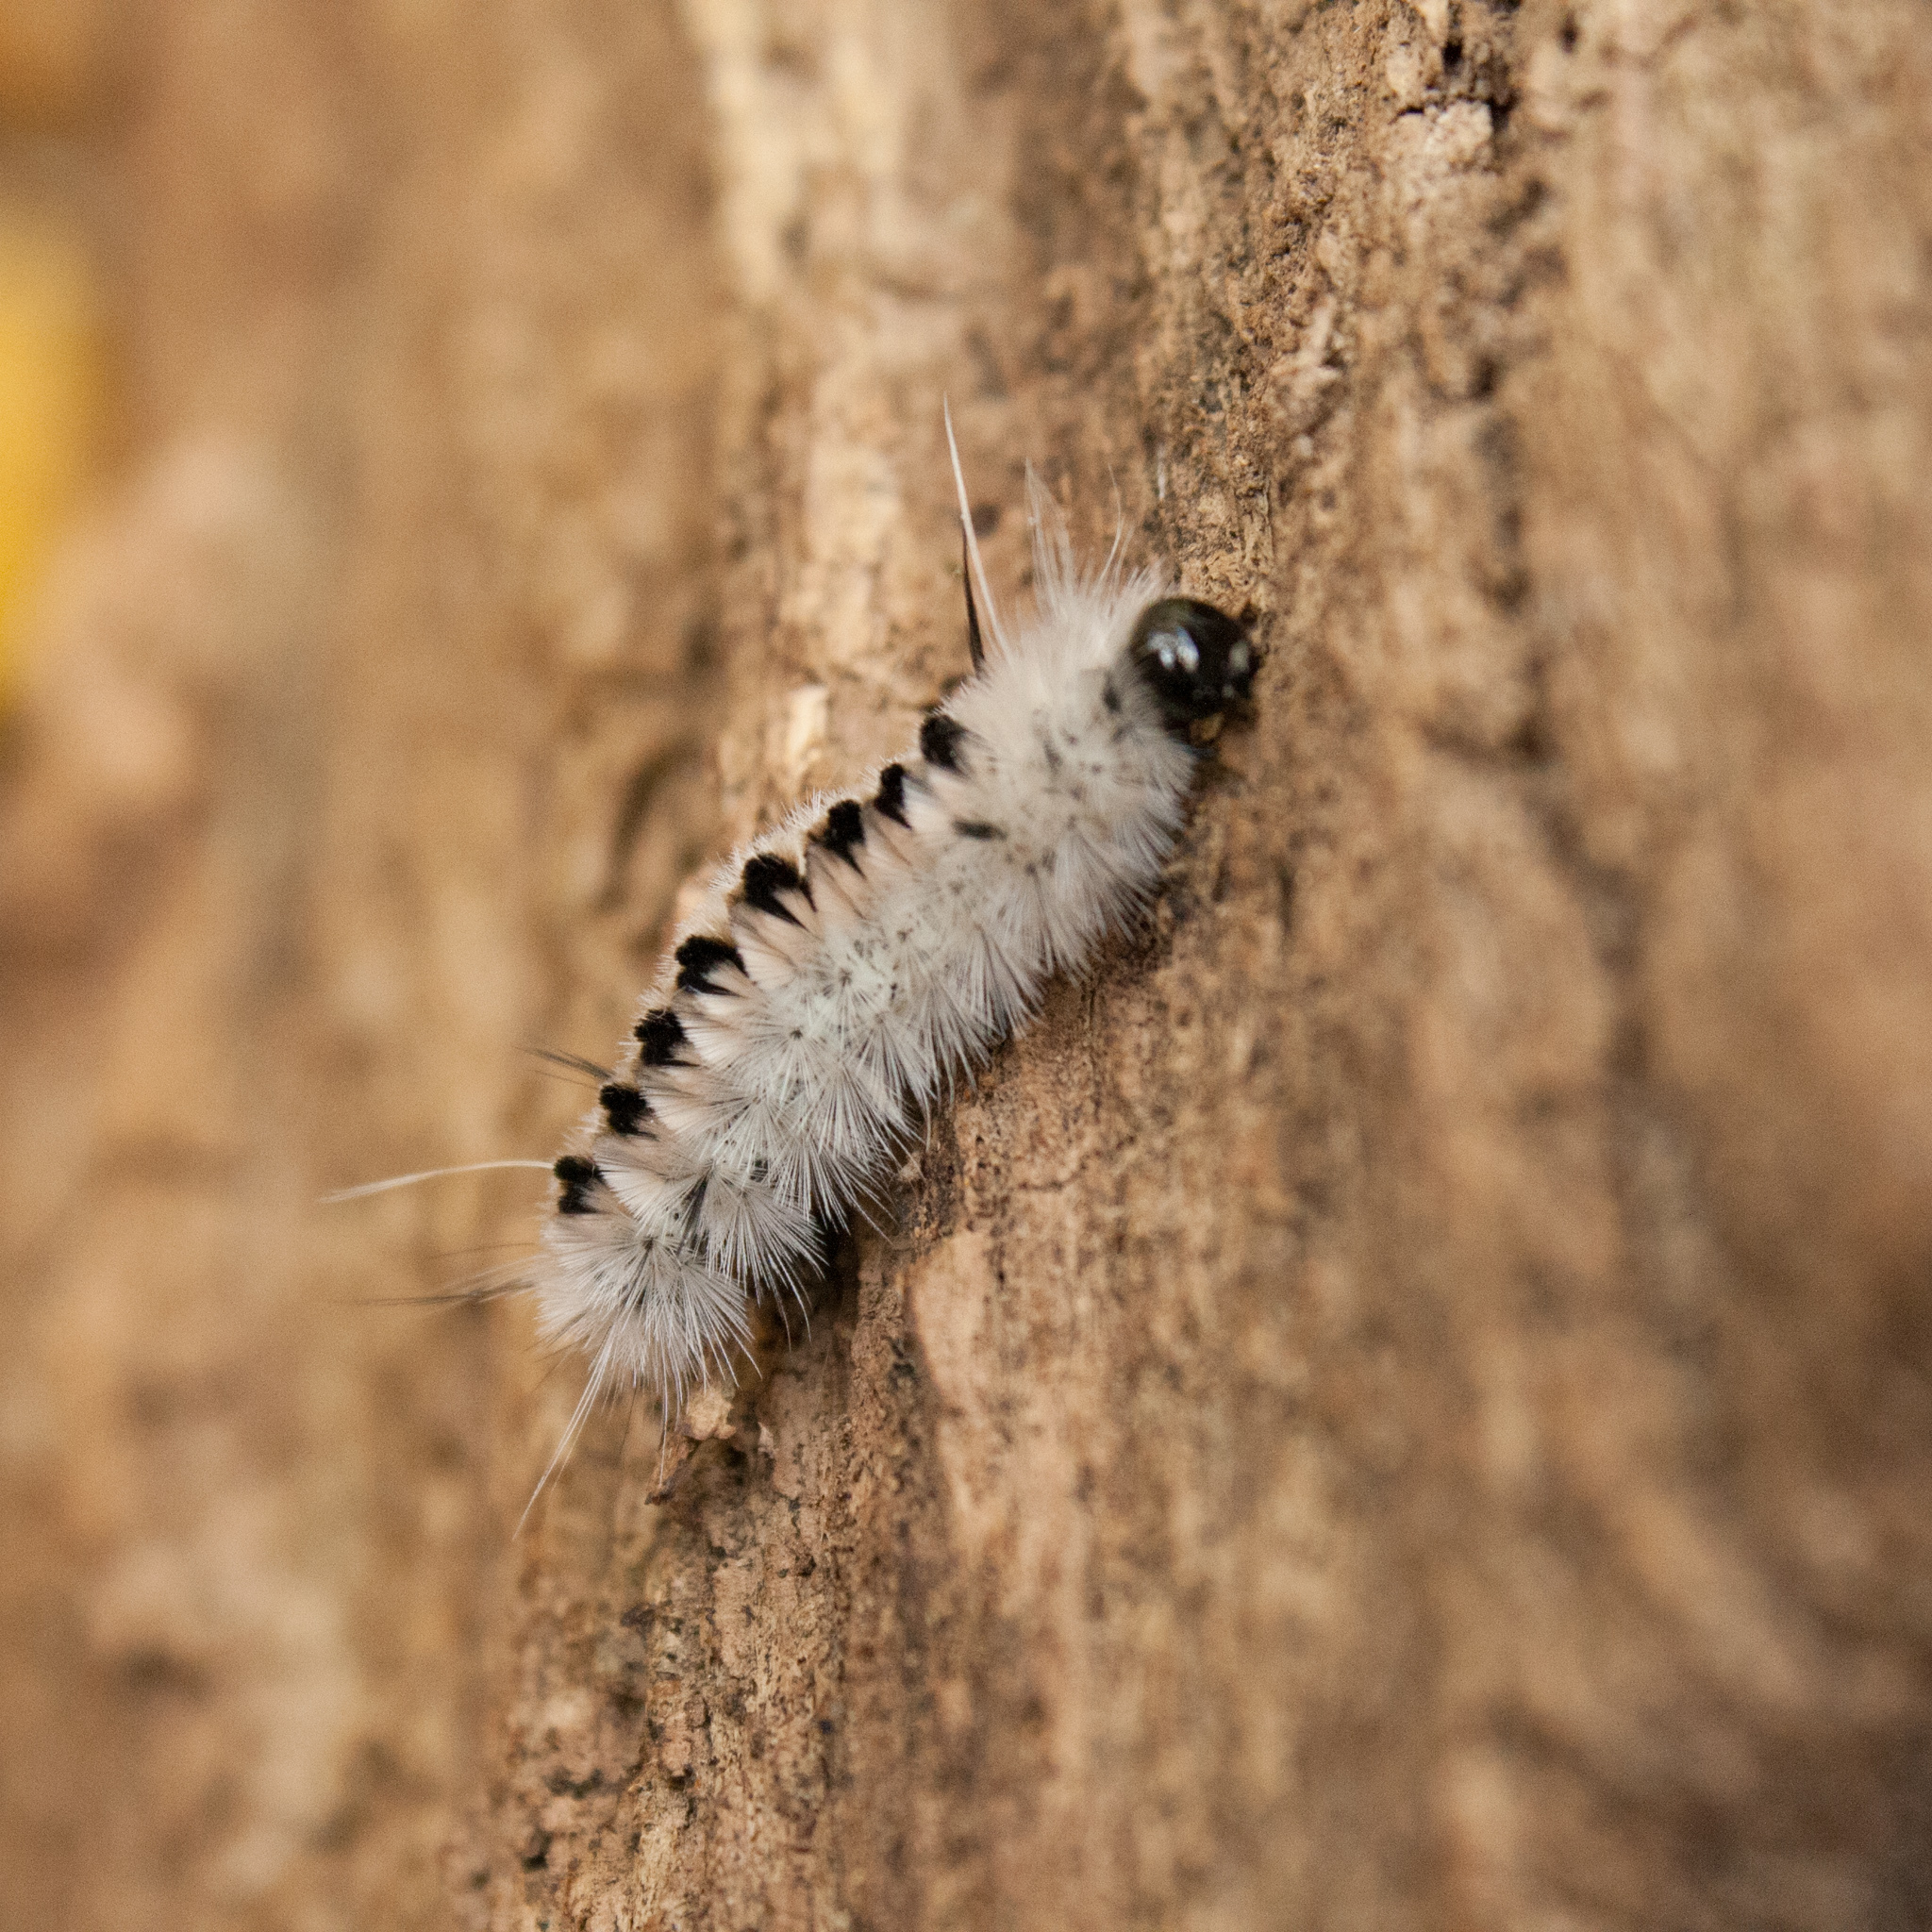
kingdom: Animalia
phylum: Arthropoda
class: Insecta
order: Lepidoptera
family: Erebidae
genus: Lophocampa
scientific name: Lophocampa caryae
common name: Hickory tussock moth
